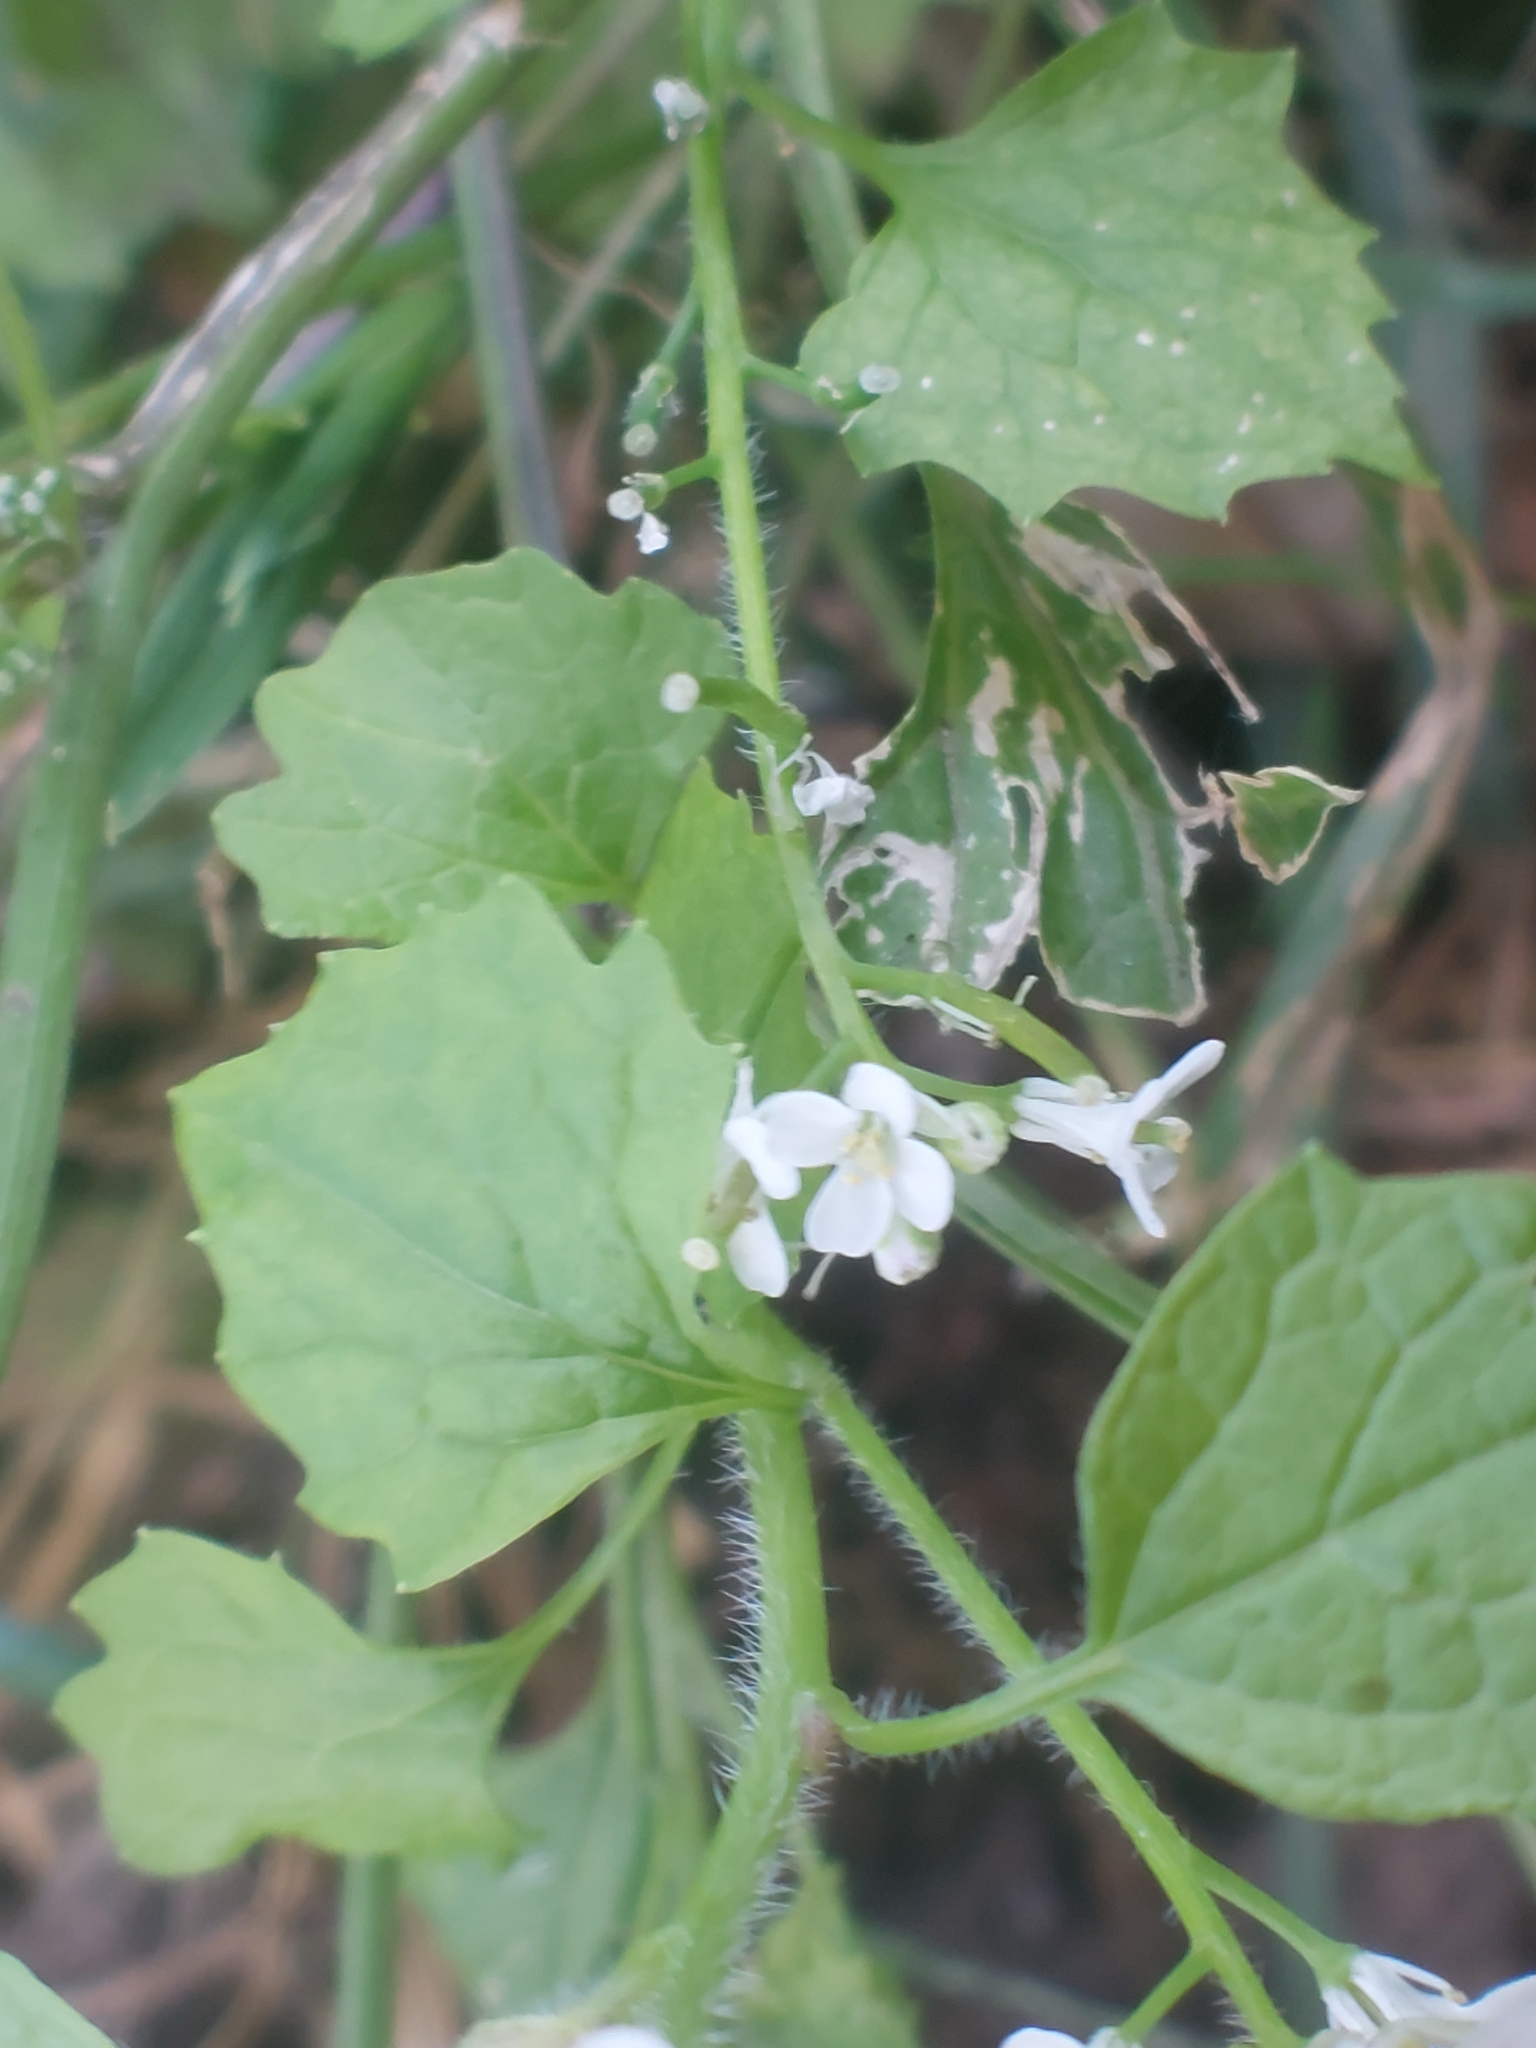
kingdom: Plantae
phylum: Tracheophyta
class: Magnoliopsida
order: Brassicales
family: Brassicaceae
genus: Alliaria
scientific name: Alliaria petiolata
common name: Garlic mustard
